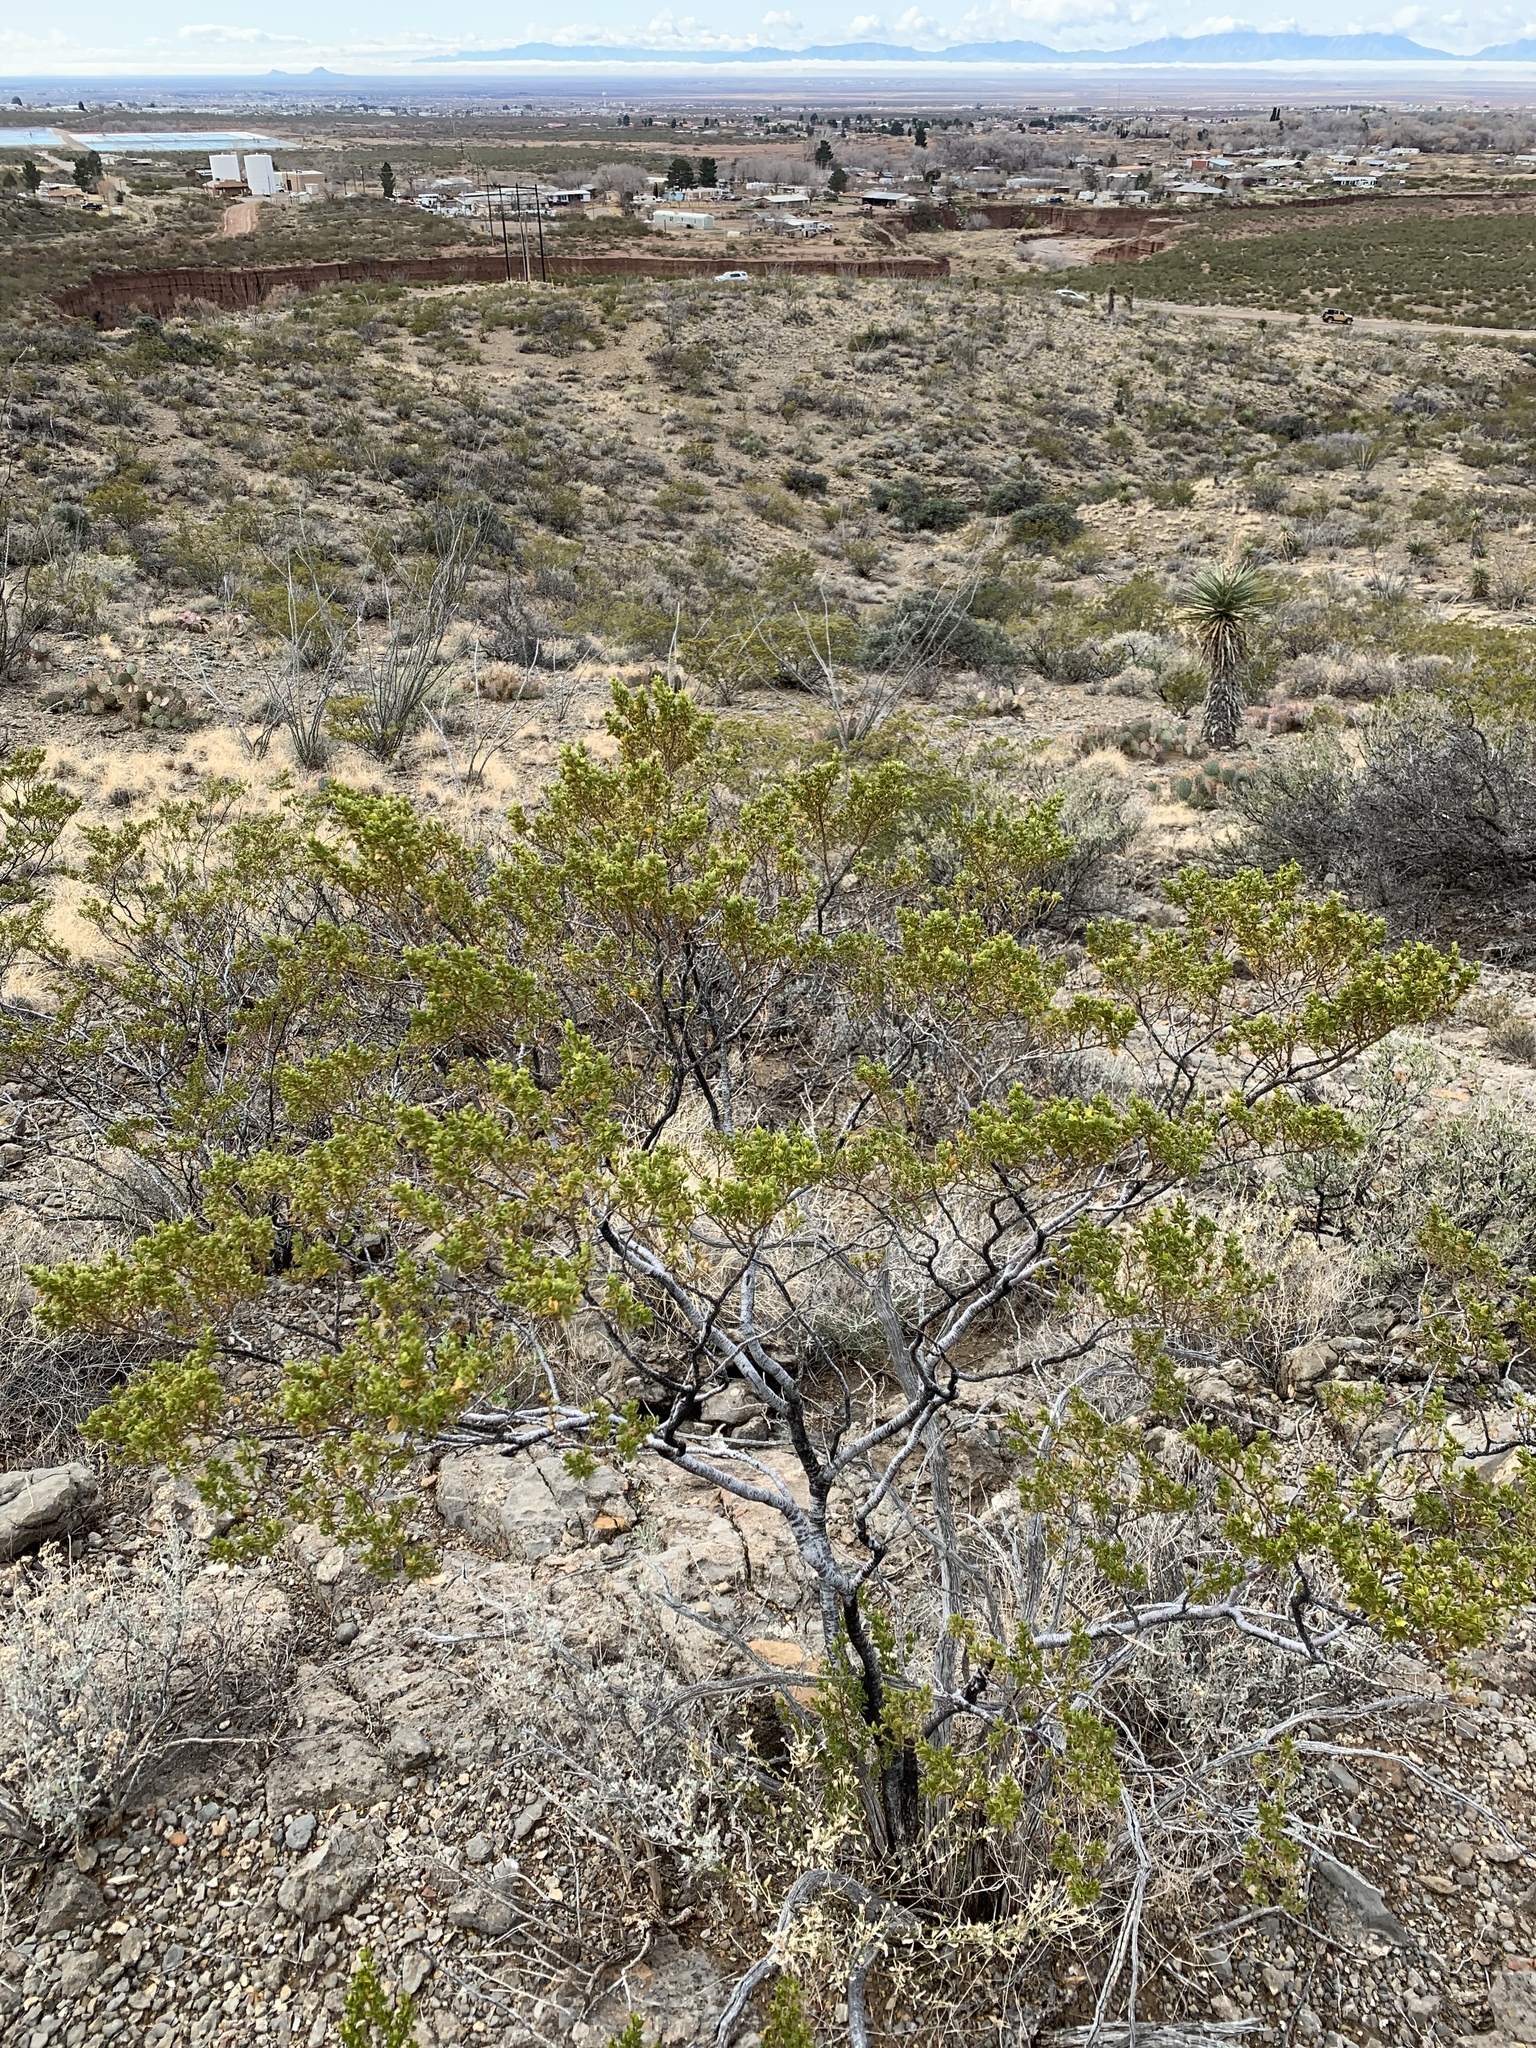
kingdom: Plantae
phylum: Tracheophyta
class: Magnoliopsida
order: Zygophyllales
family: Zygophyllaceae
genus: Larrea
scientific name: Larrea tridentata
